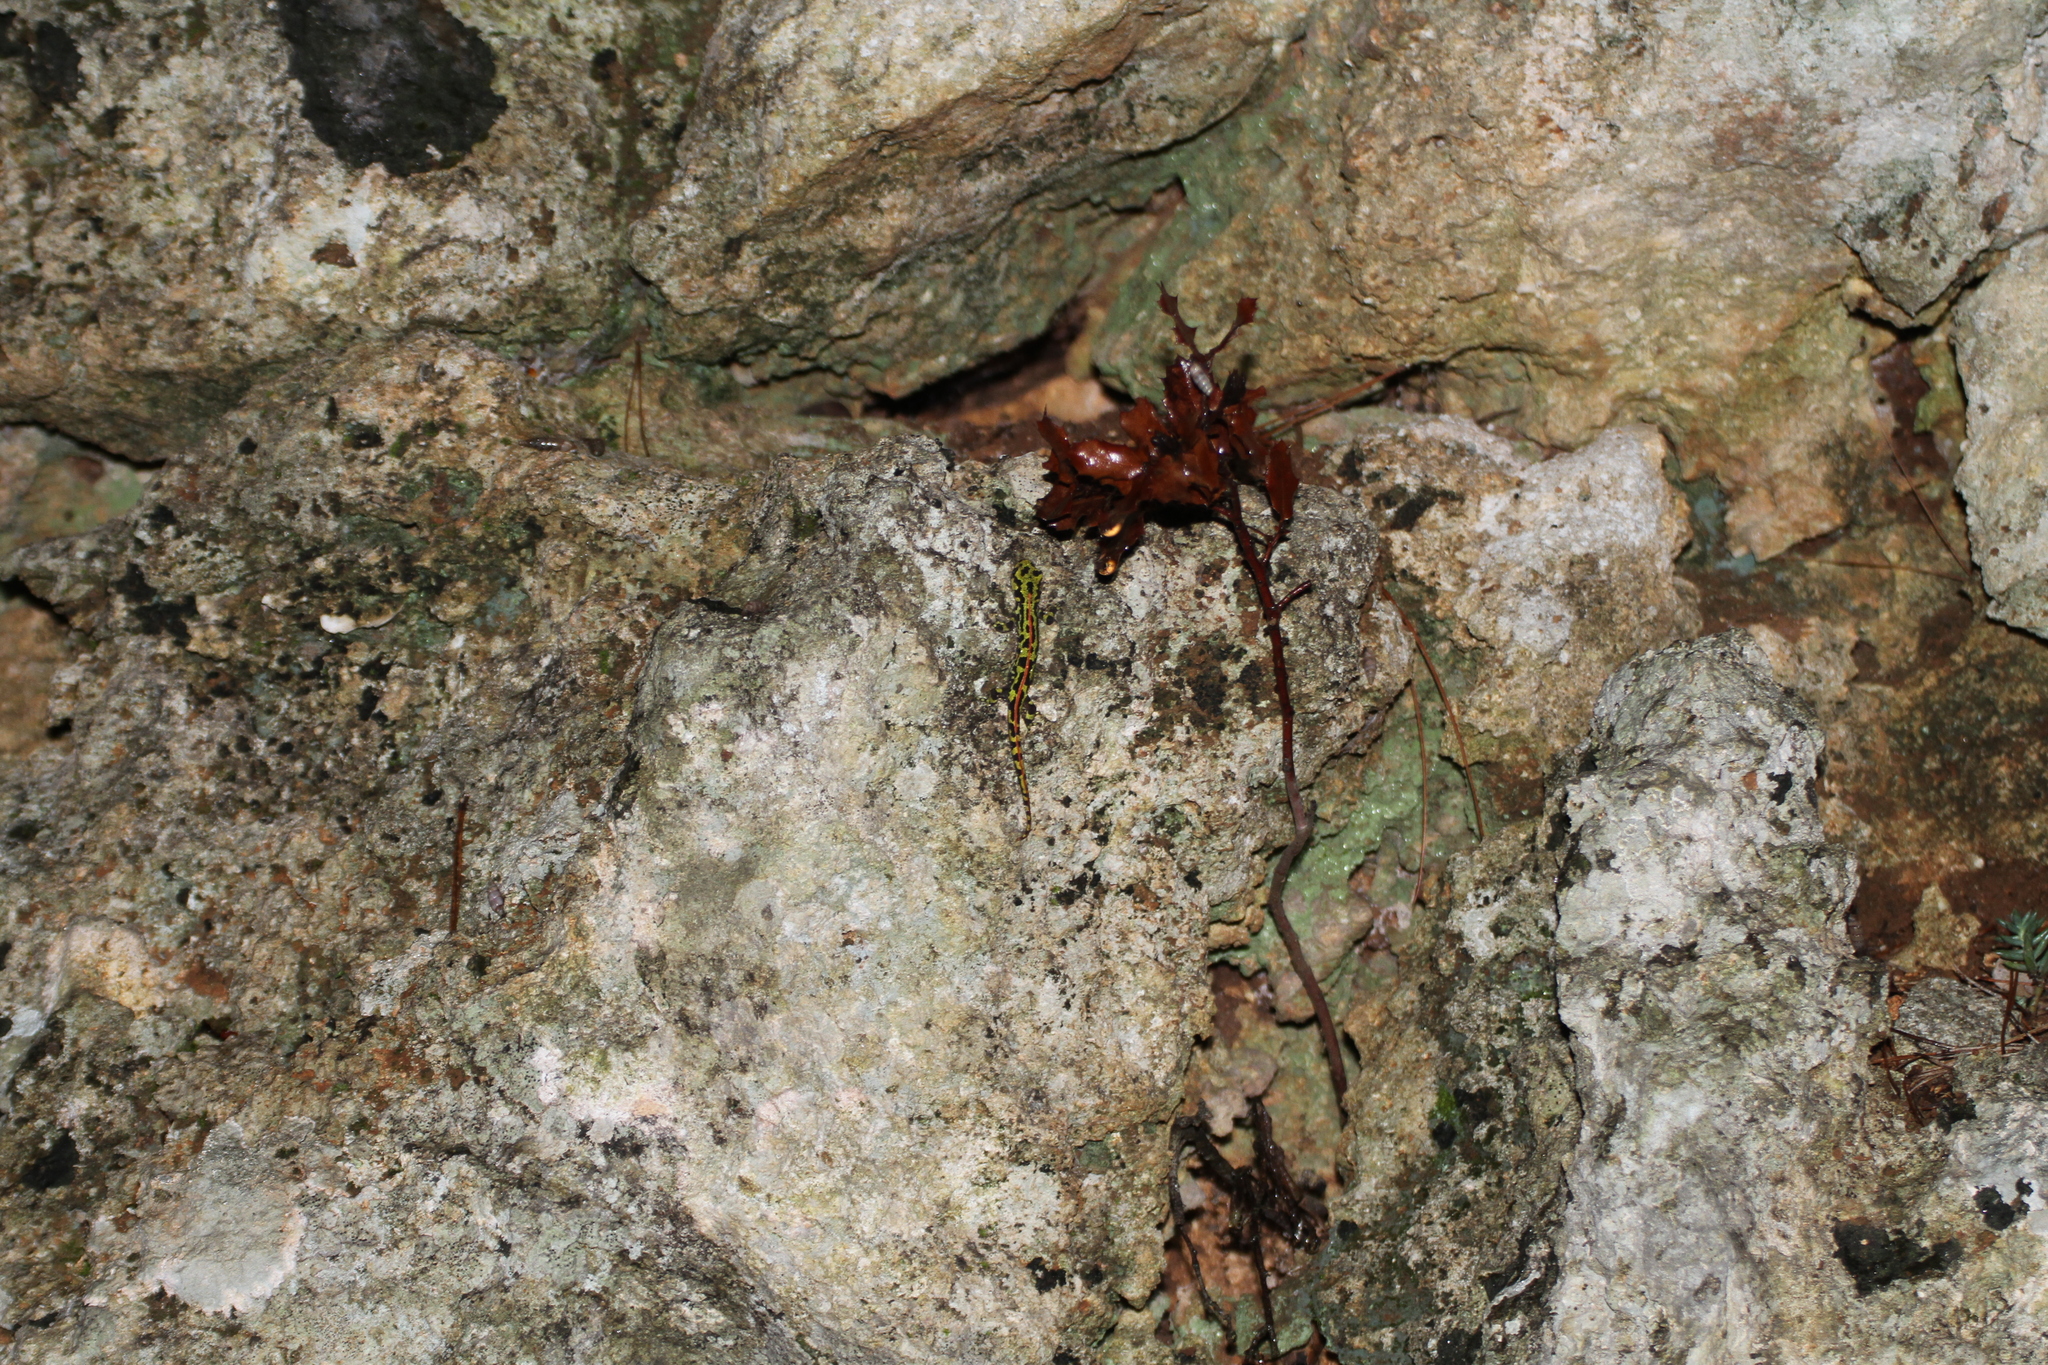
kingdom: Animalia
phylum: Chordata
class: Amphibia
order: Caudata
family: Salamandridae
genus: Triturus
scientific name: Triturus marmoratus
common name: Marbled newt
